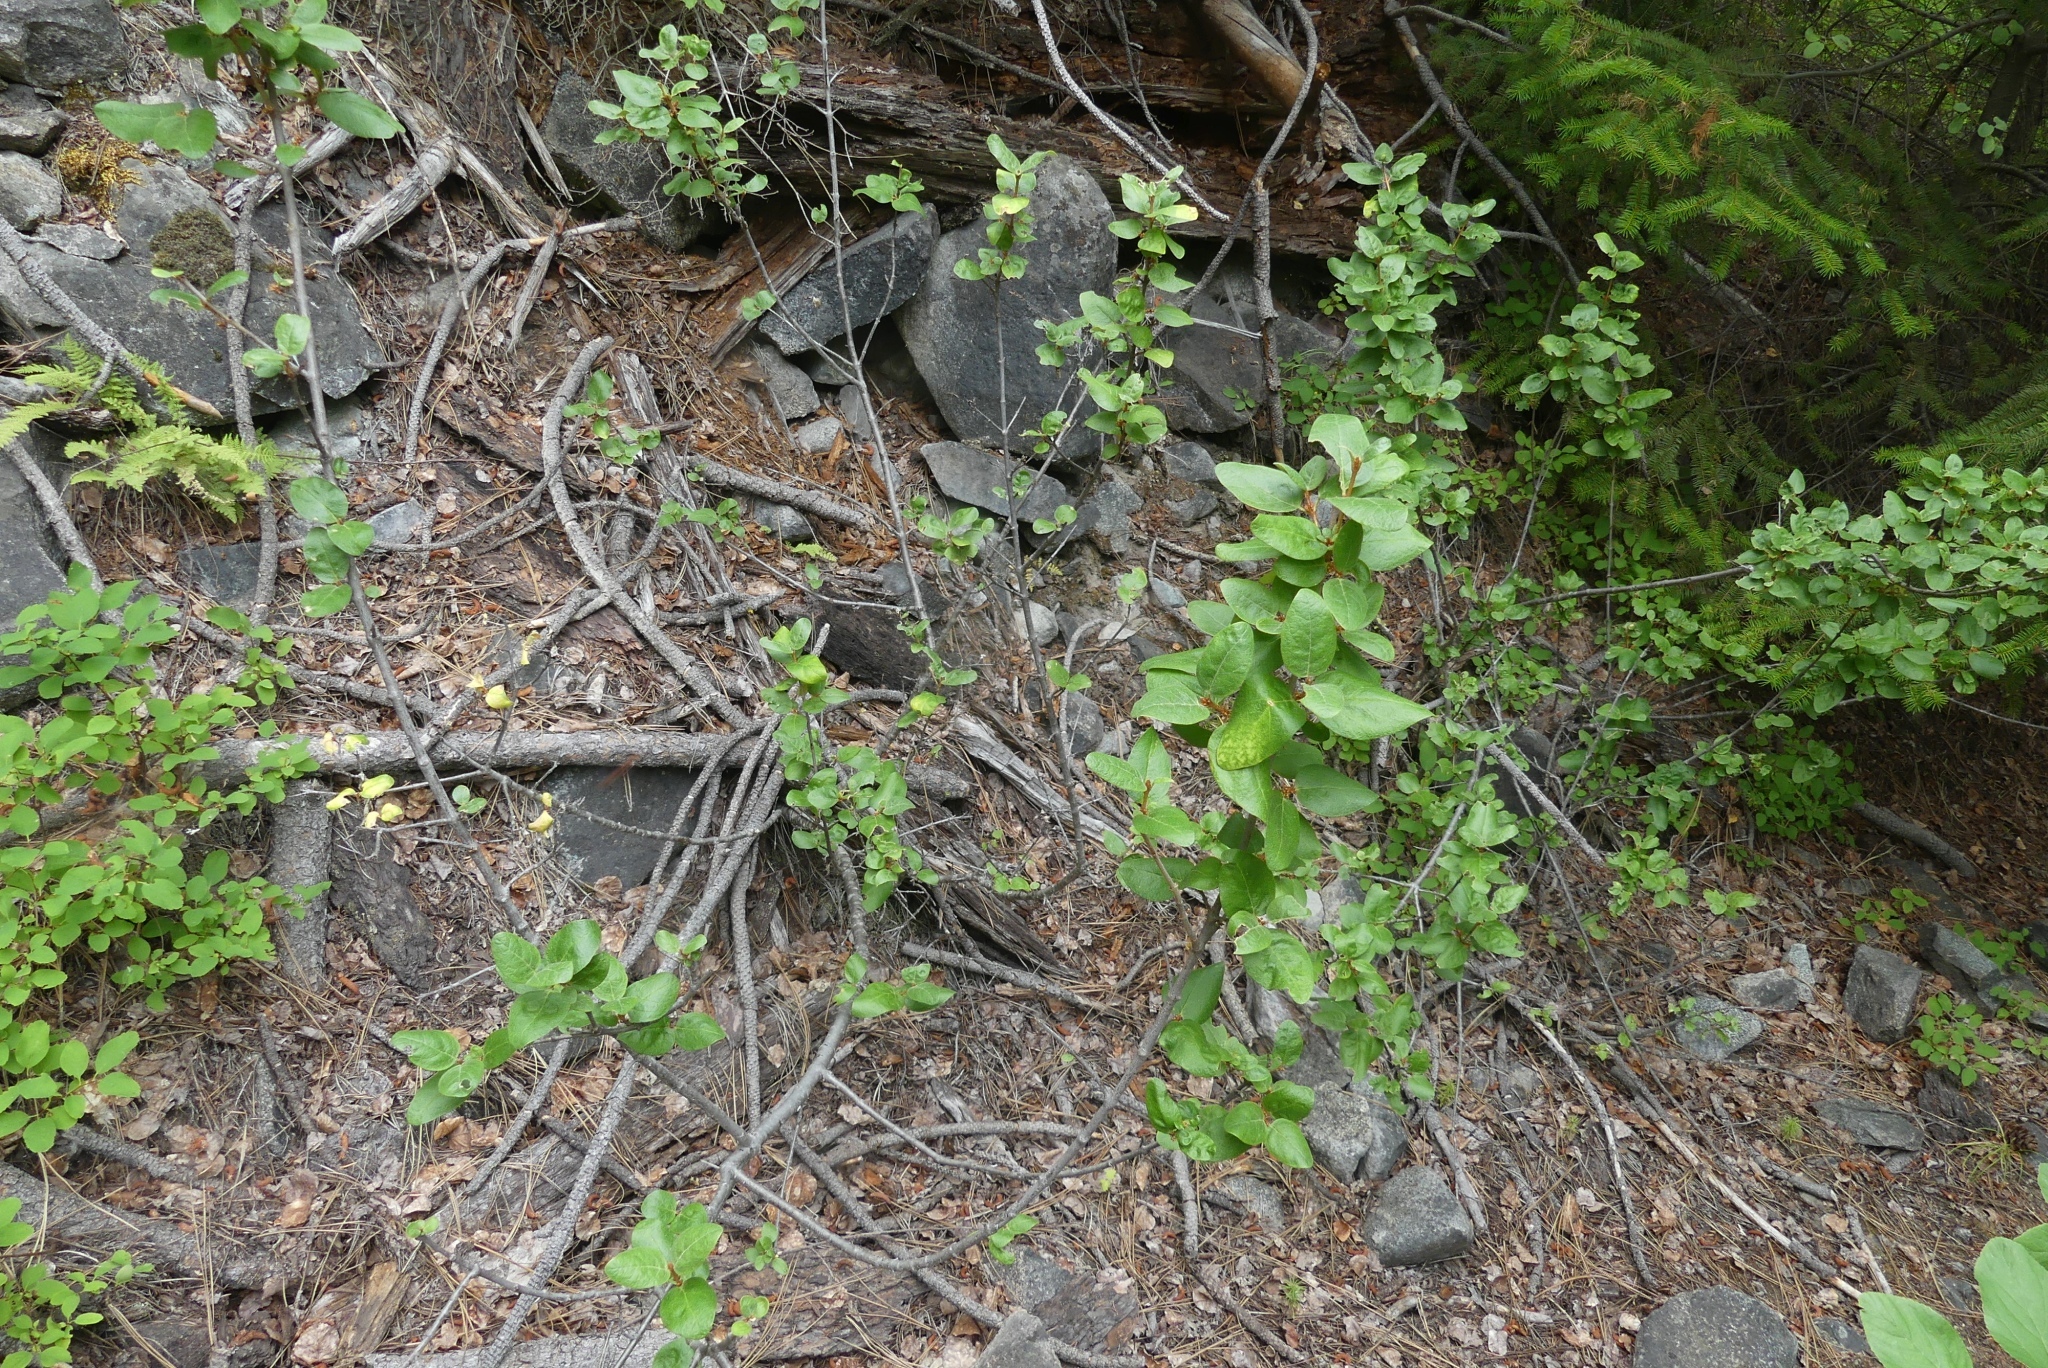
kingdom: Plantae
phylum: Tracheophyta
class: Magnoliopsida
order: Rosales
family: Elaeagnaceae
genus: Shepherdia
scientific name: Shepherdia canadensis
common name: Soapberry
